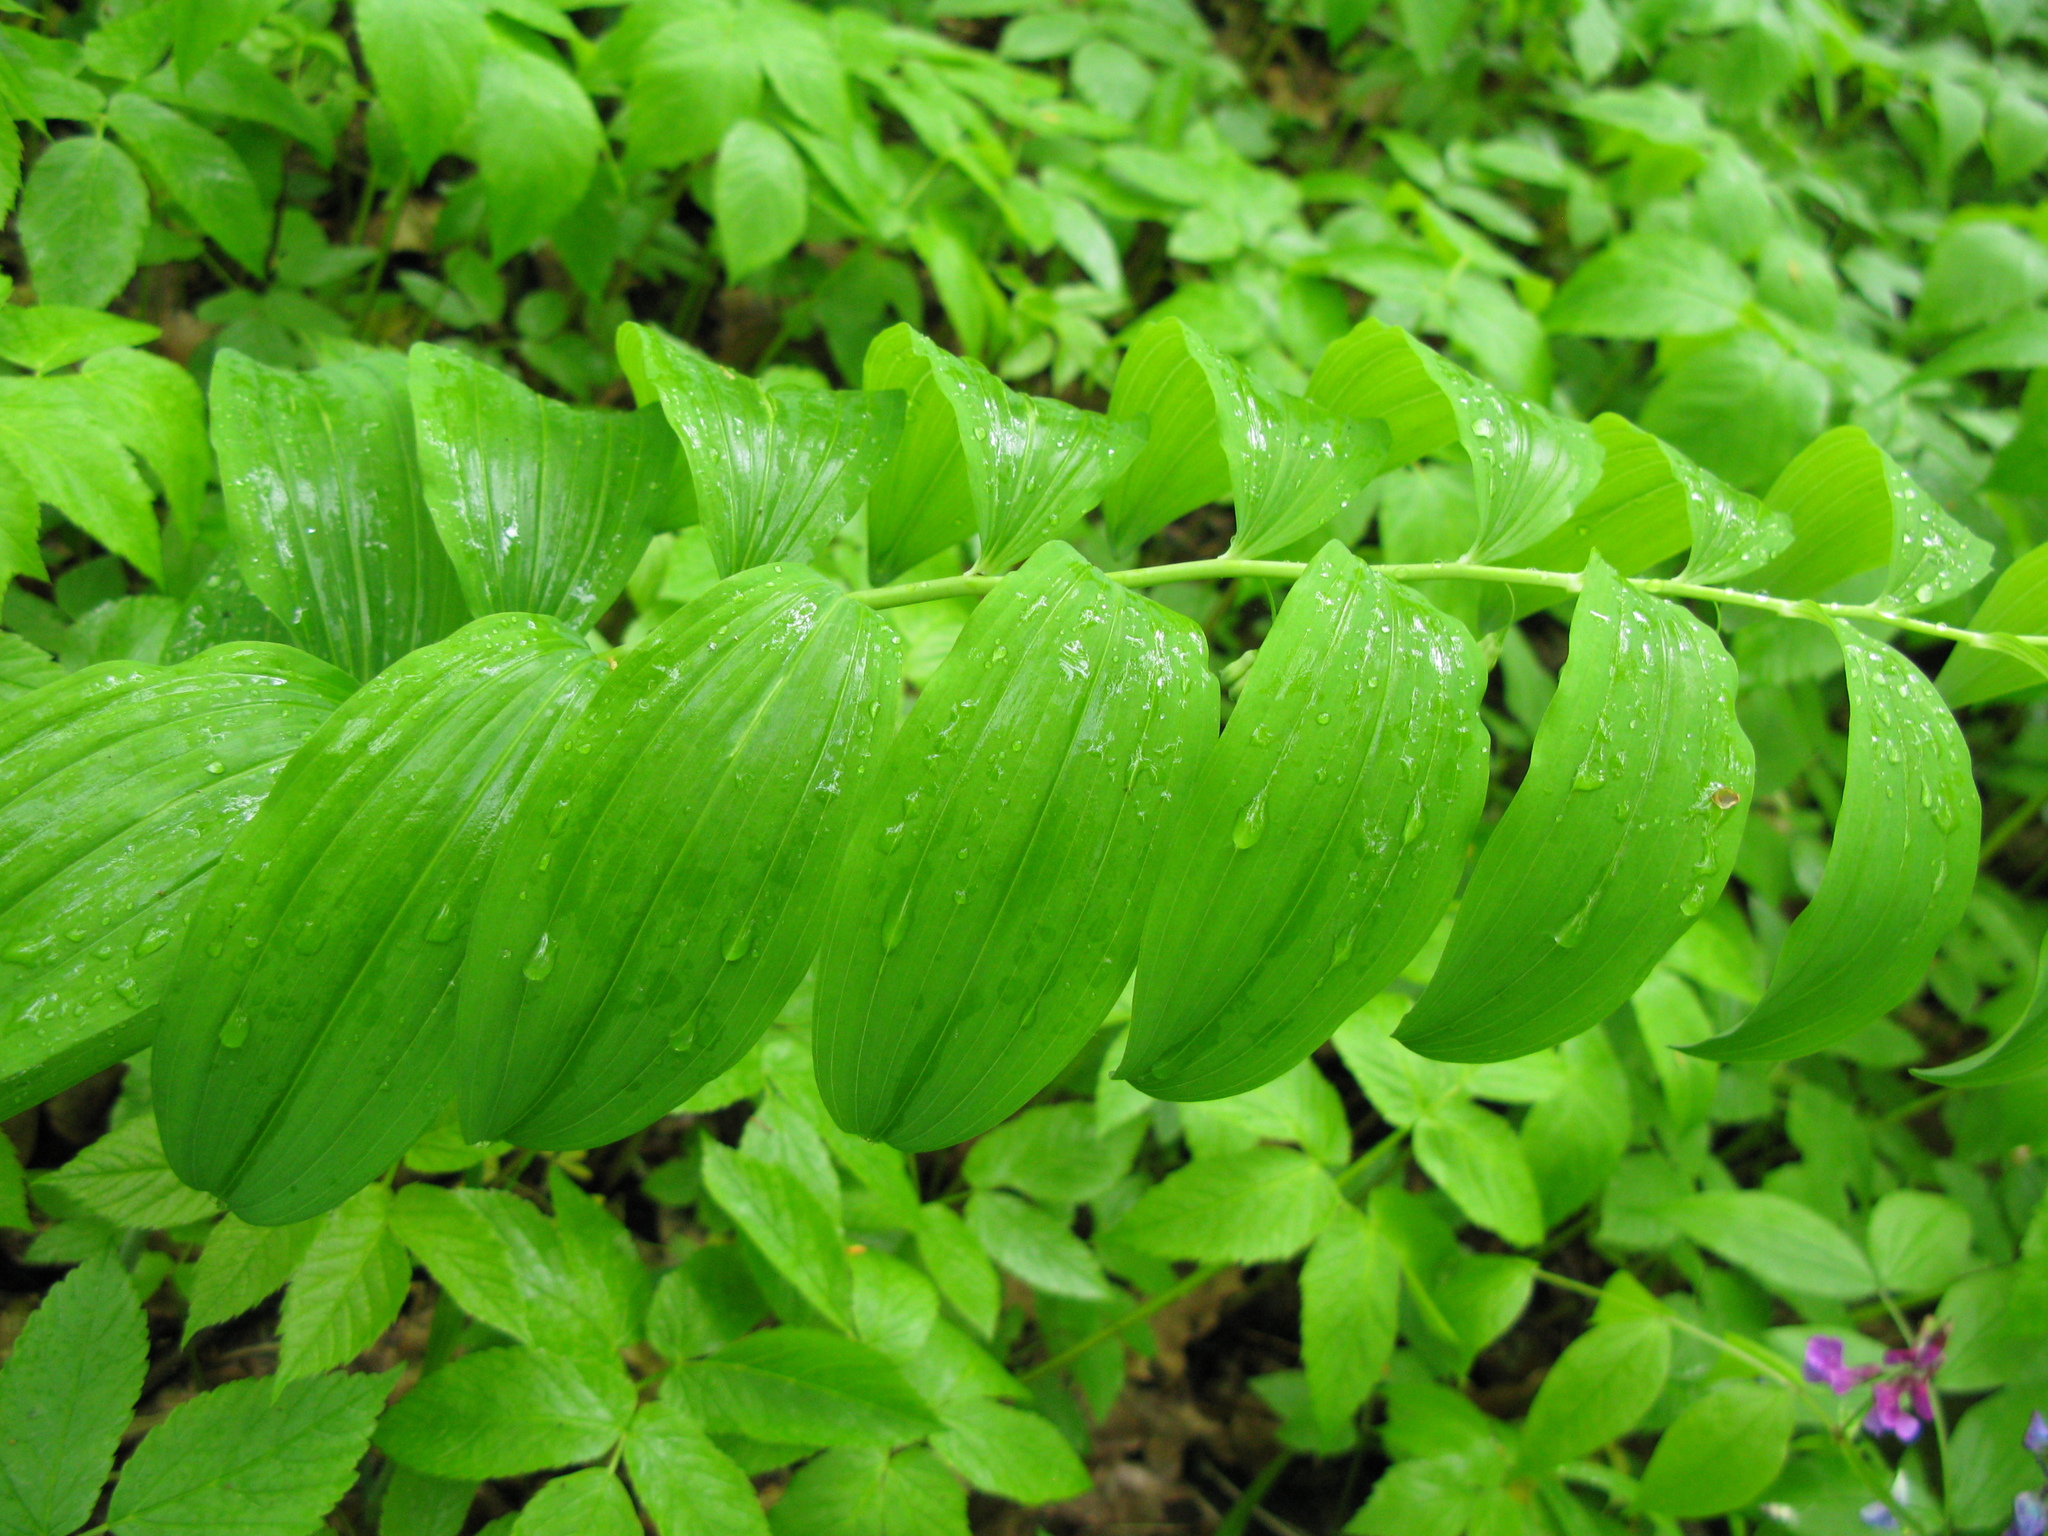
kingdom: Plantae
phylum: Tracheophyta
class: Liliopsida
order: Asparagales
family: Asparagaceae
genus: Polygonatum
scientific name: Polygonatum multiflorum
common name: Solomon's-seal
